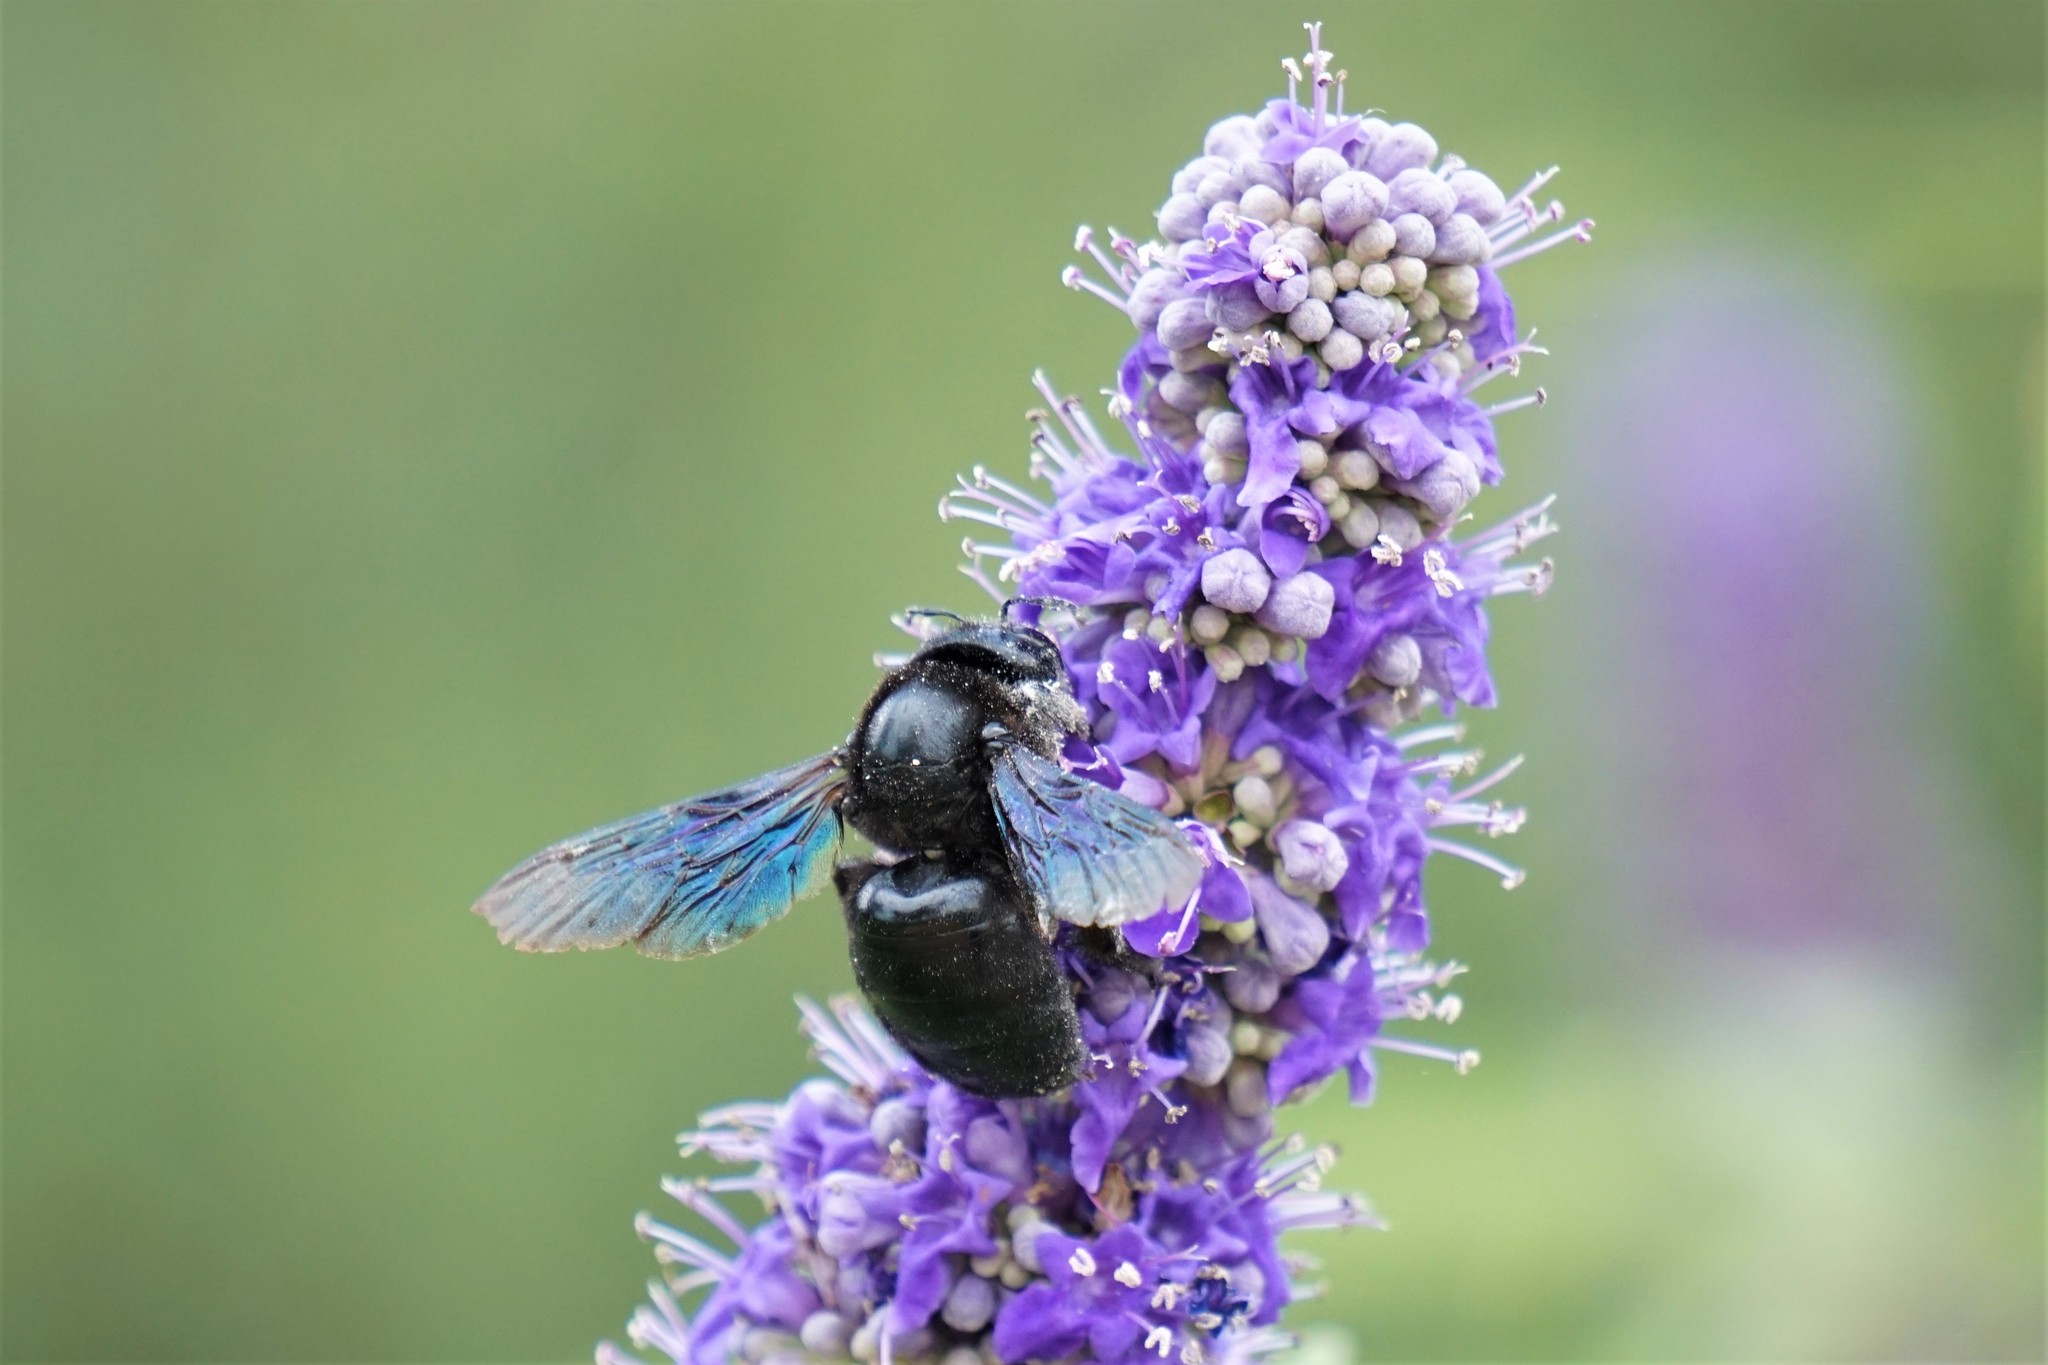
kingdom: Animalia
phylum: Arthropoda
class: Insecta
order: Hymenoptera
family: Apidae
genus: Xylocopa
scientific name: Xylocopa violacea
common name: Violet carpenter bee
